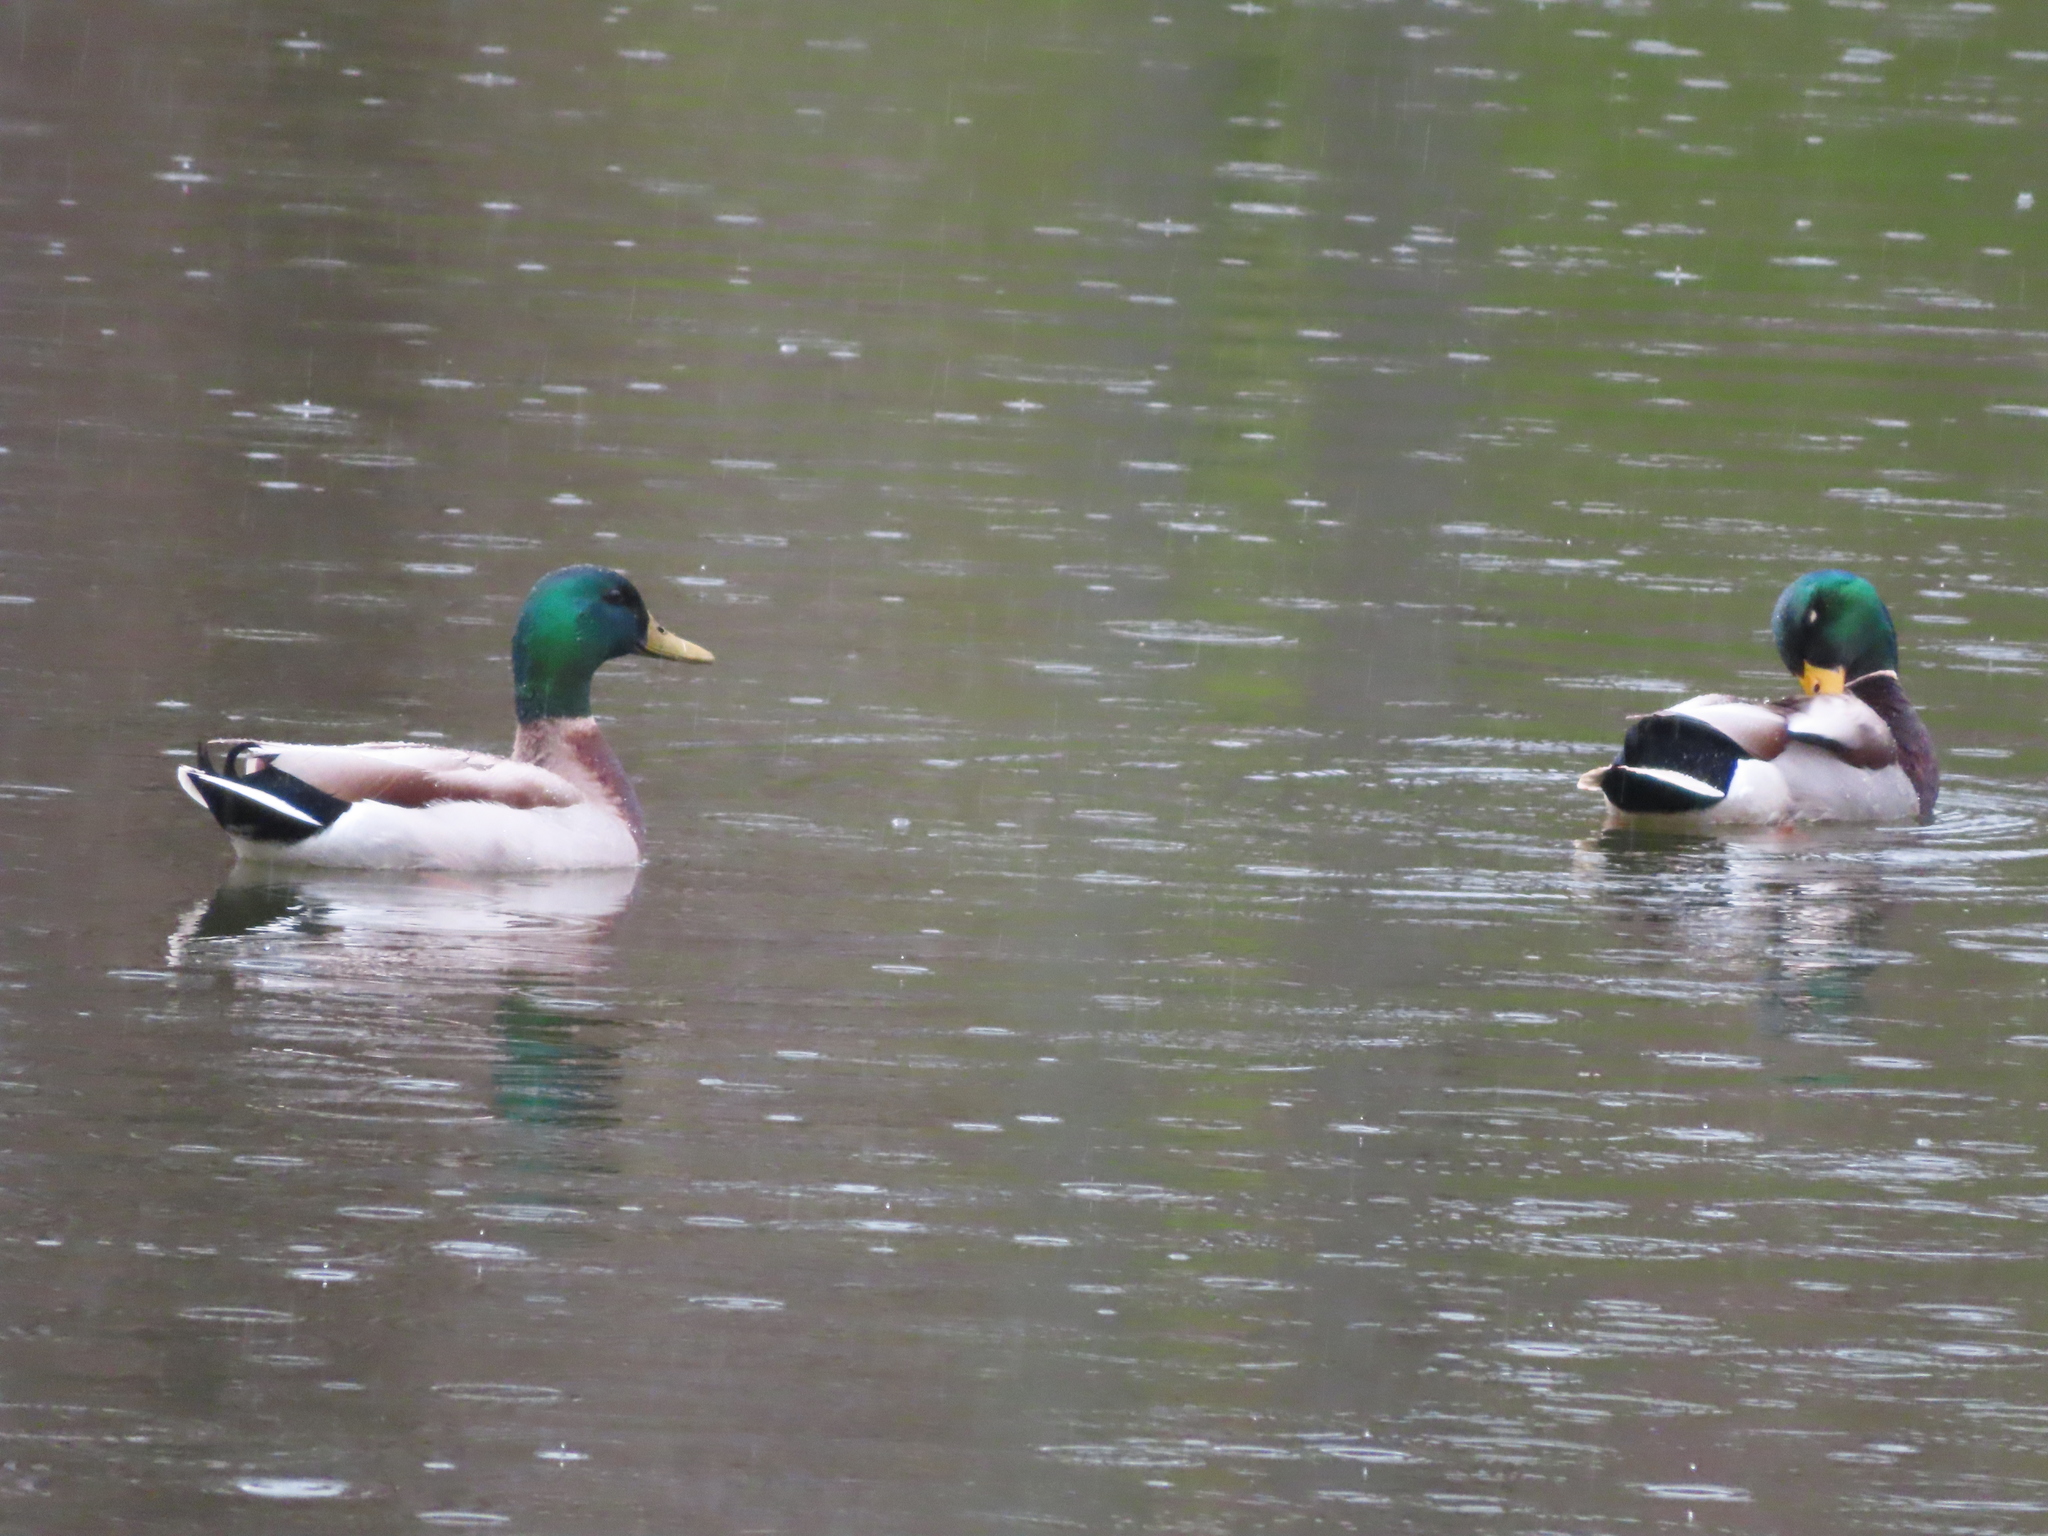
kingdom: Animalia
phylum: Chordata
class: Aves
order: Anseriformes
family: Anatidae
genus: Anas
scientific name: Anas platyrhynchos
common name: Mallard
